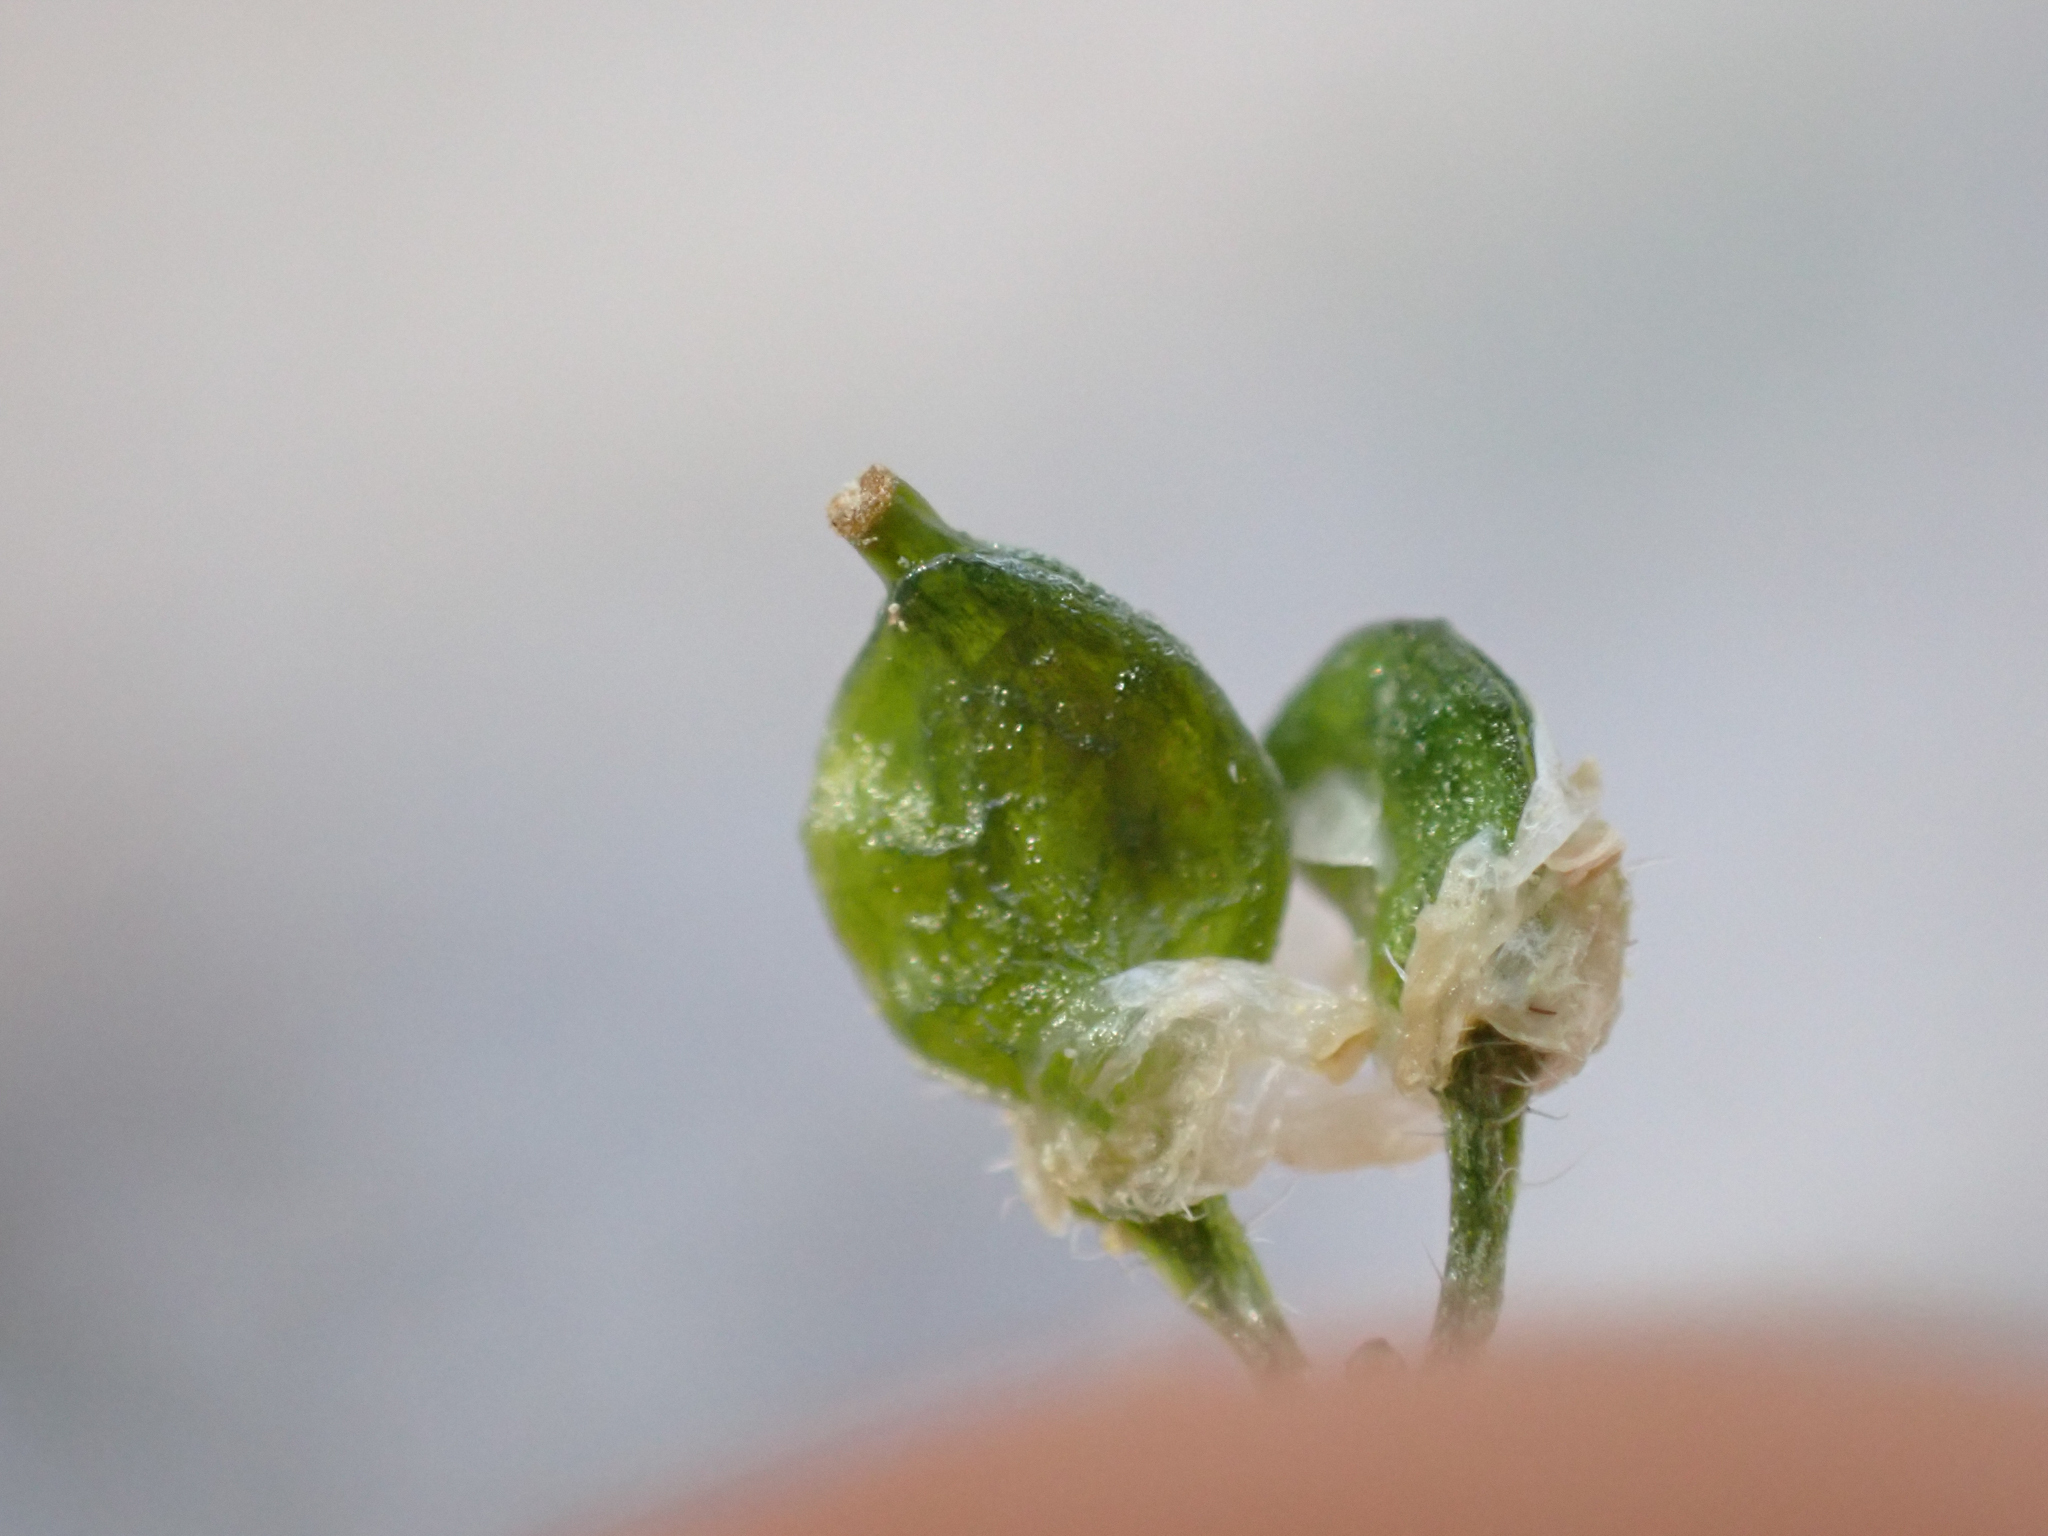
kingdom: Plantae
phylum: Tracheophyta
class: Magnoliopsida
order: Brassicales
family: Brassicaceae
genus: Draba
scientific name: Draba longisquamosa
